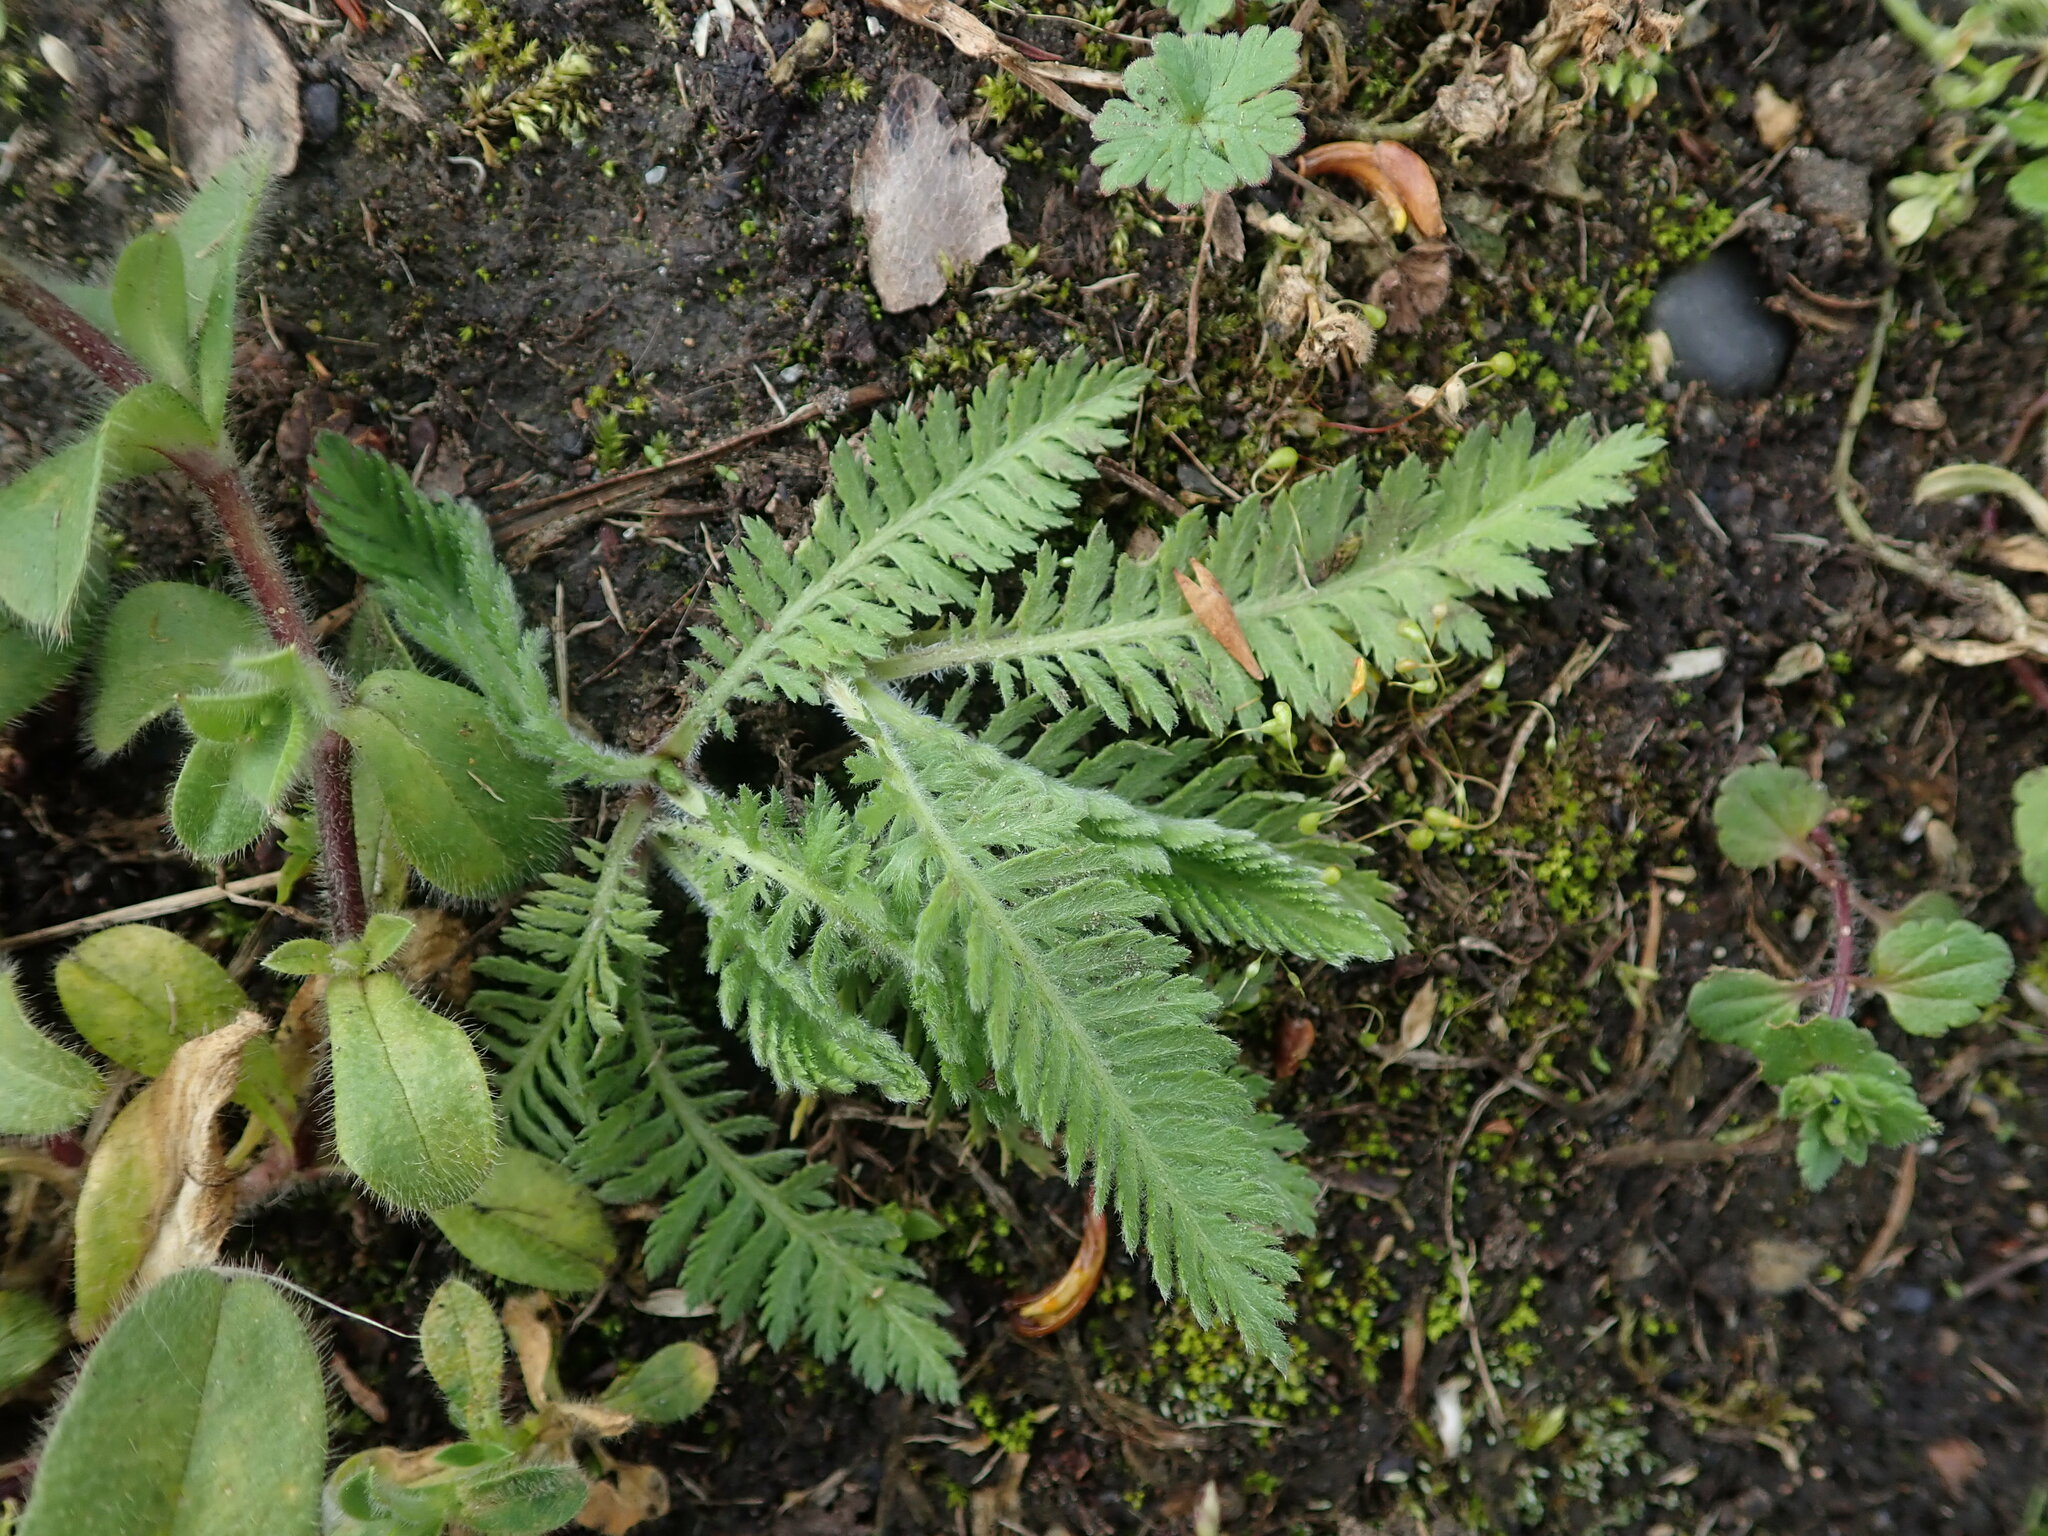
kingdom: Plantae
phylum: Tracheophyta
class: Magnoliopsida
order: Asterales
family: Asteraceae
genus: Achillea
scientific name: Achillea filipendulina
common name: Fernleaf yarrow
